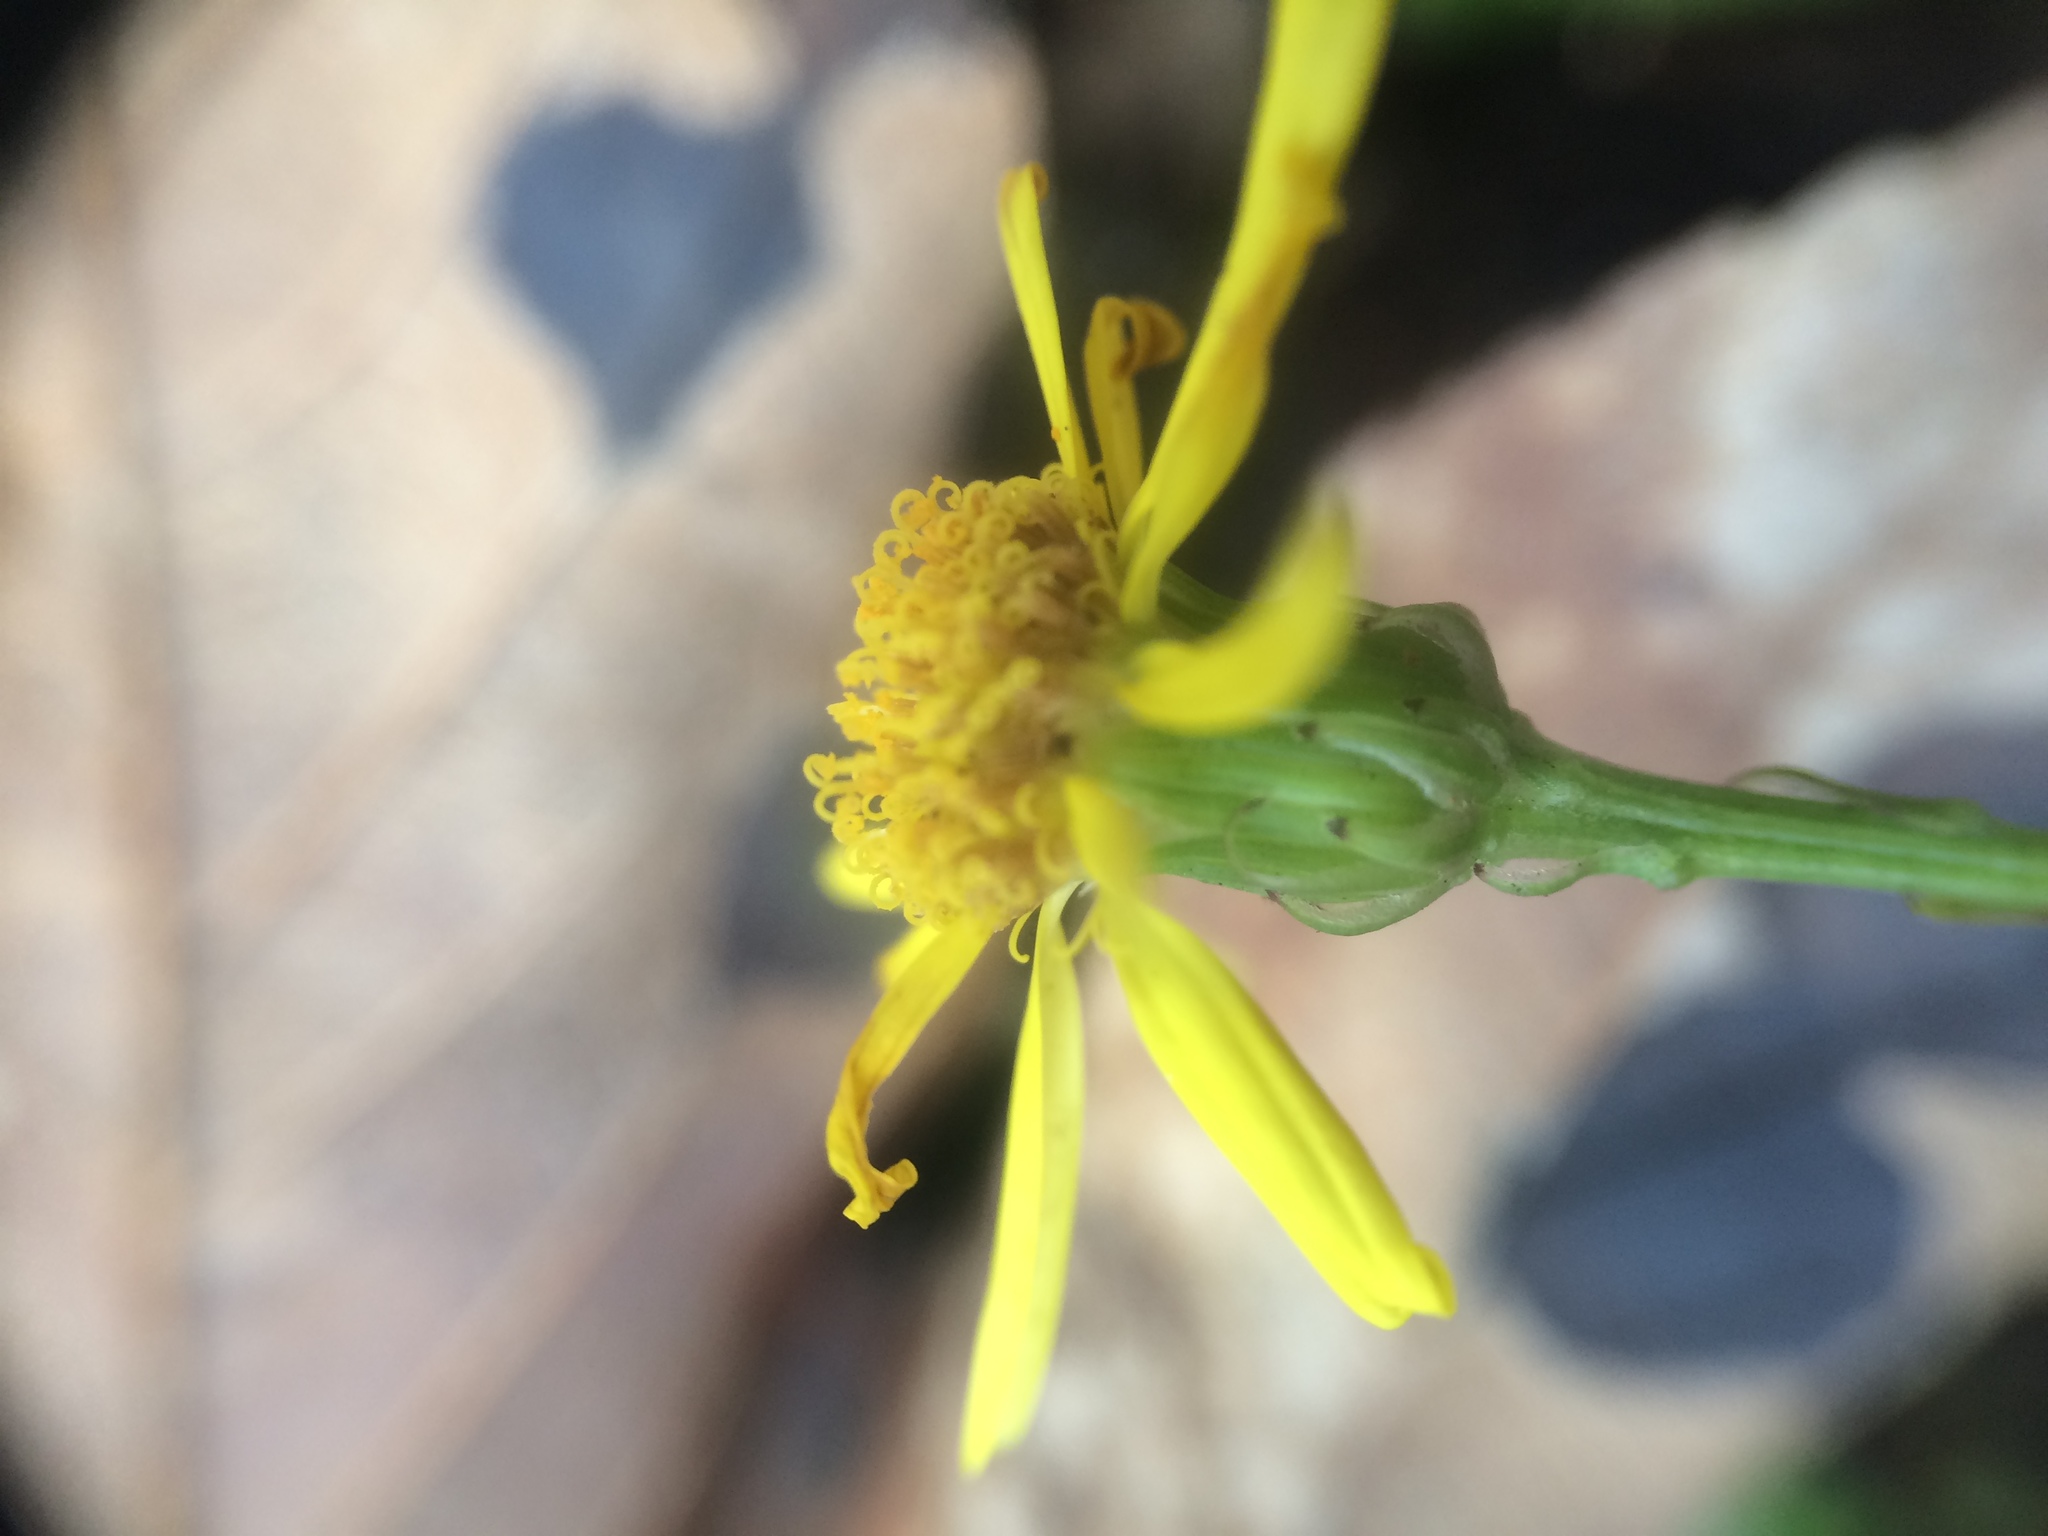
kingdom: Plantae
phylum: Tracheophyta
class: Magnoliopsida
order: Asterales
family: Asteraceae
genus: Senecio
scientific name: Senecio inaequidens
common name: Narrow-leaved ragwort
